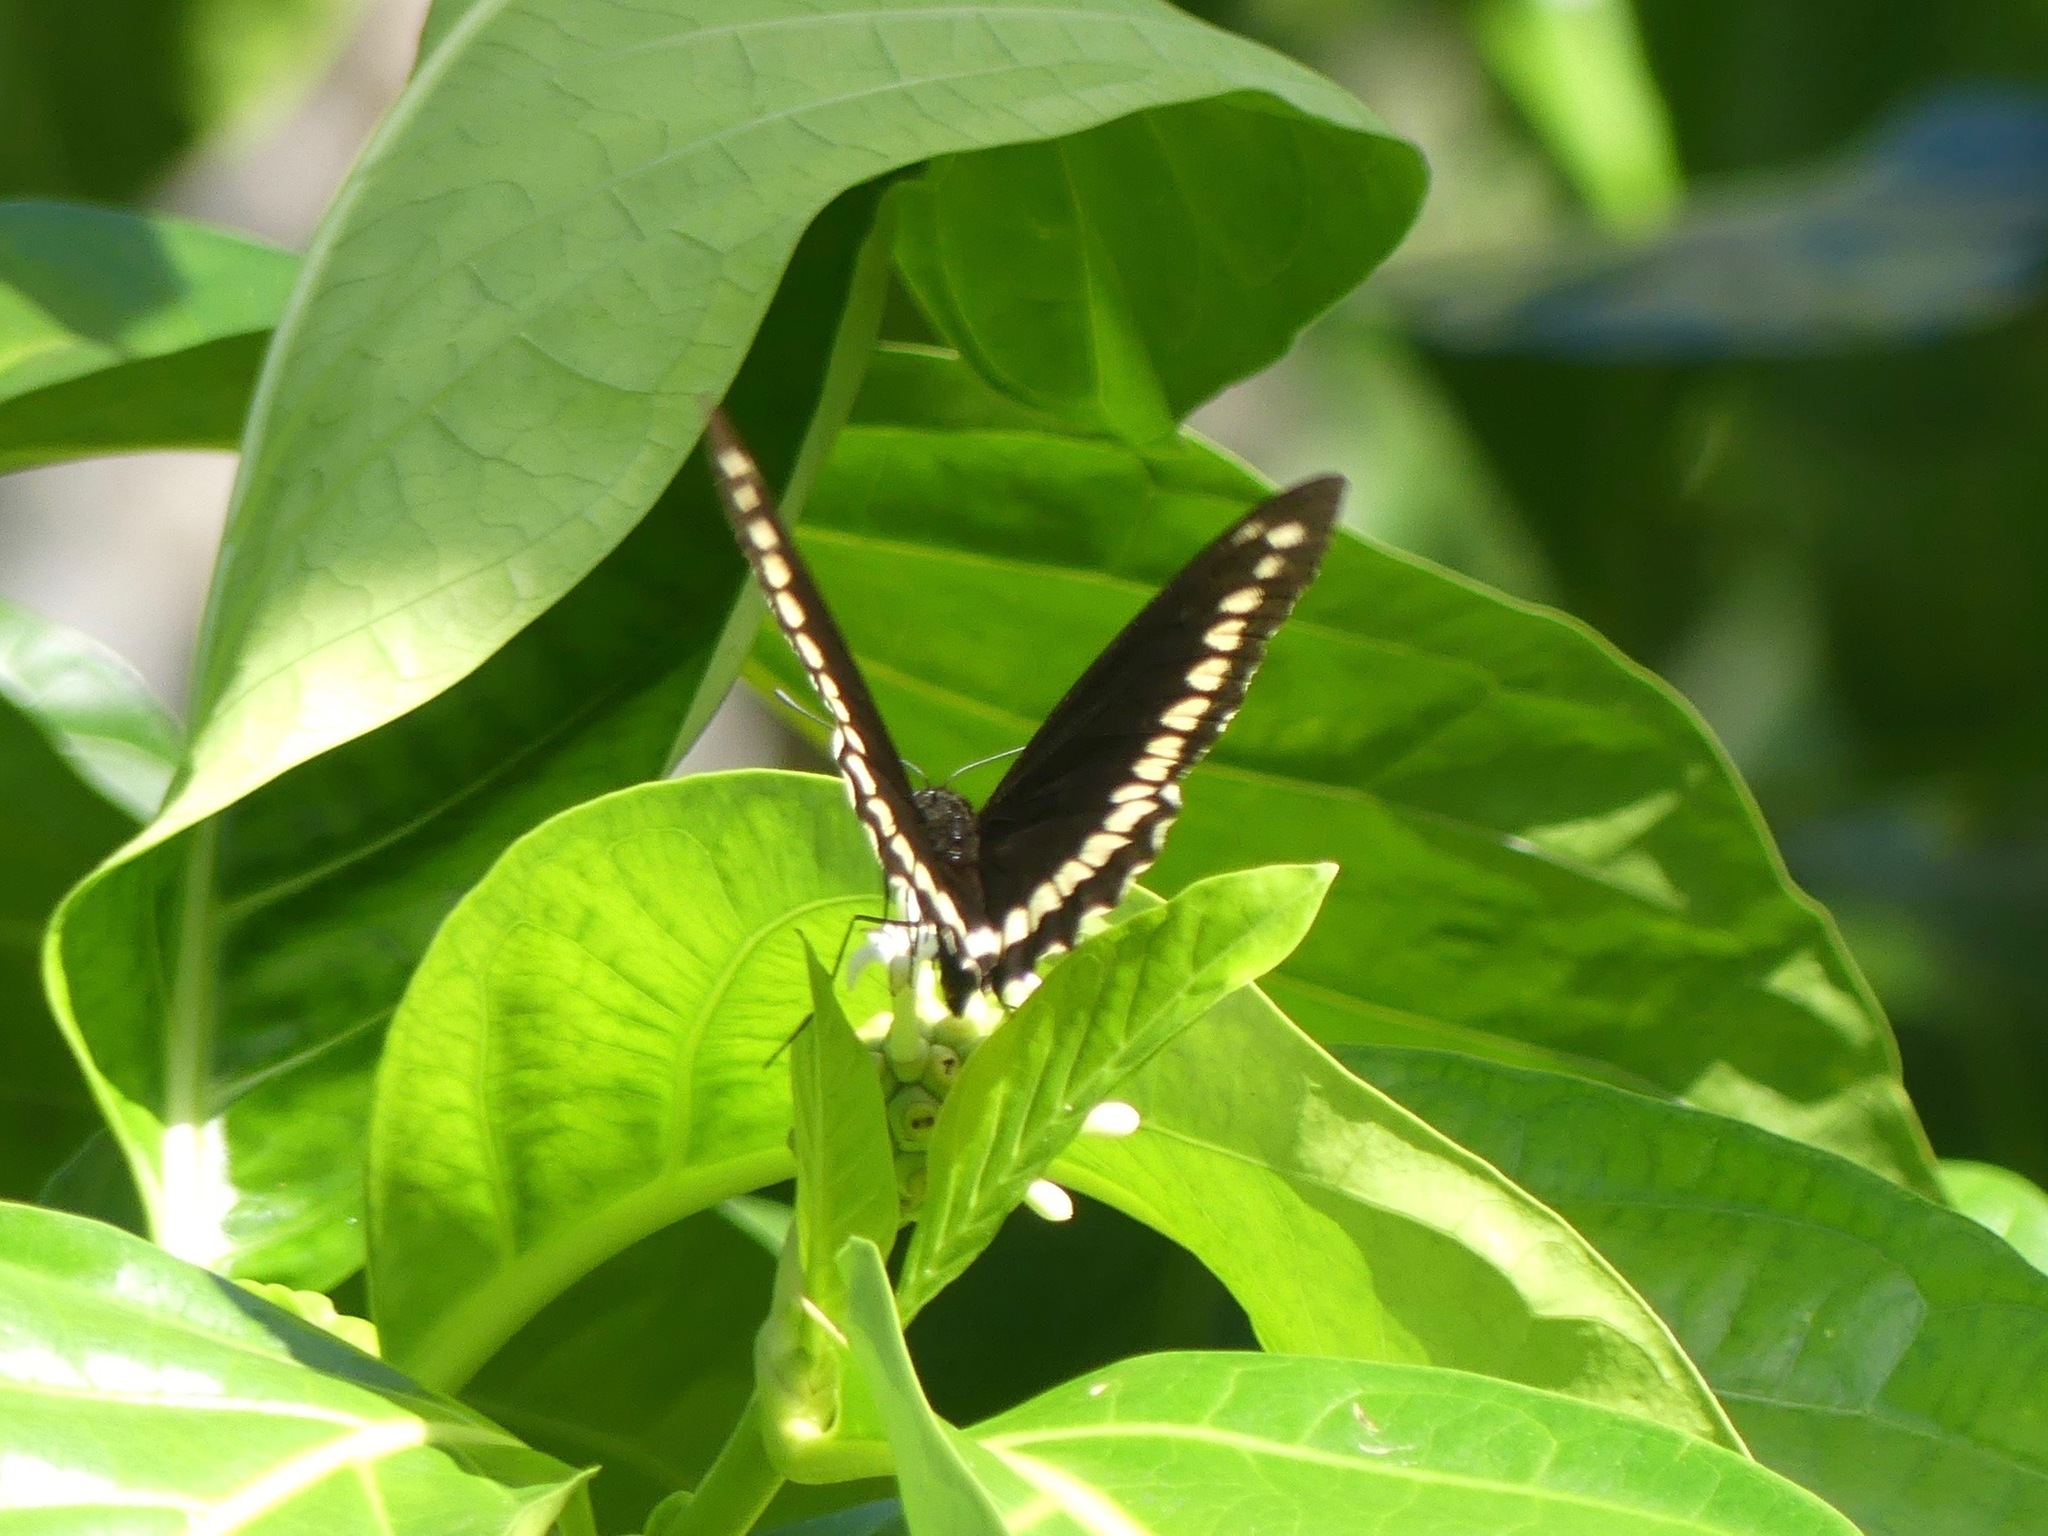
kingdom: Animalia
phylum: Arthropoda
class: Insecta
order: Lepidoptera
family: Papilionidae
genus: Battus
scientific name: Battus polydamas
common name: Polydamas swallowtail
